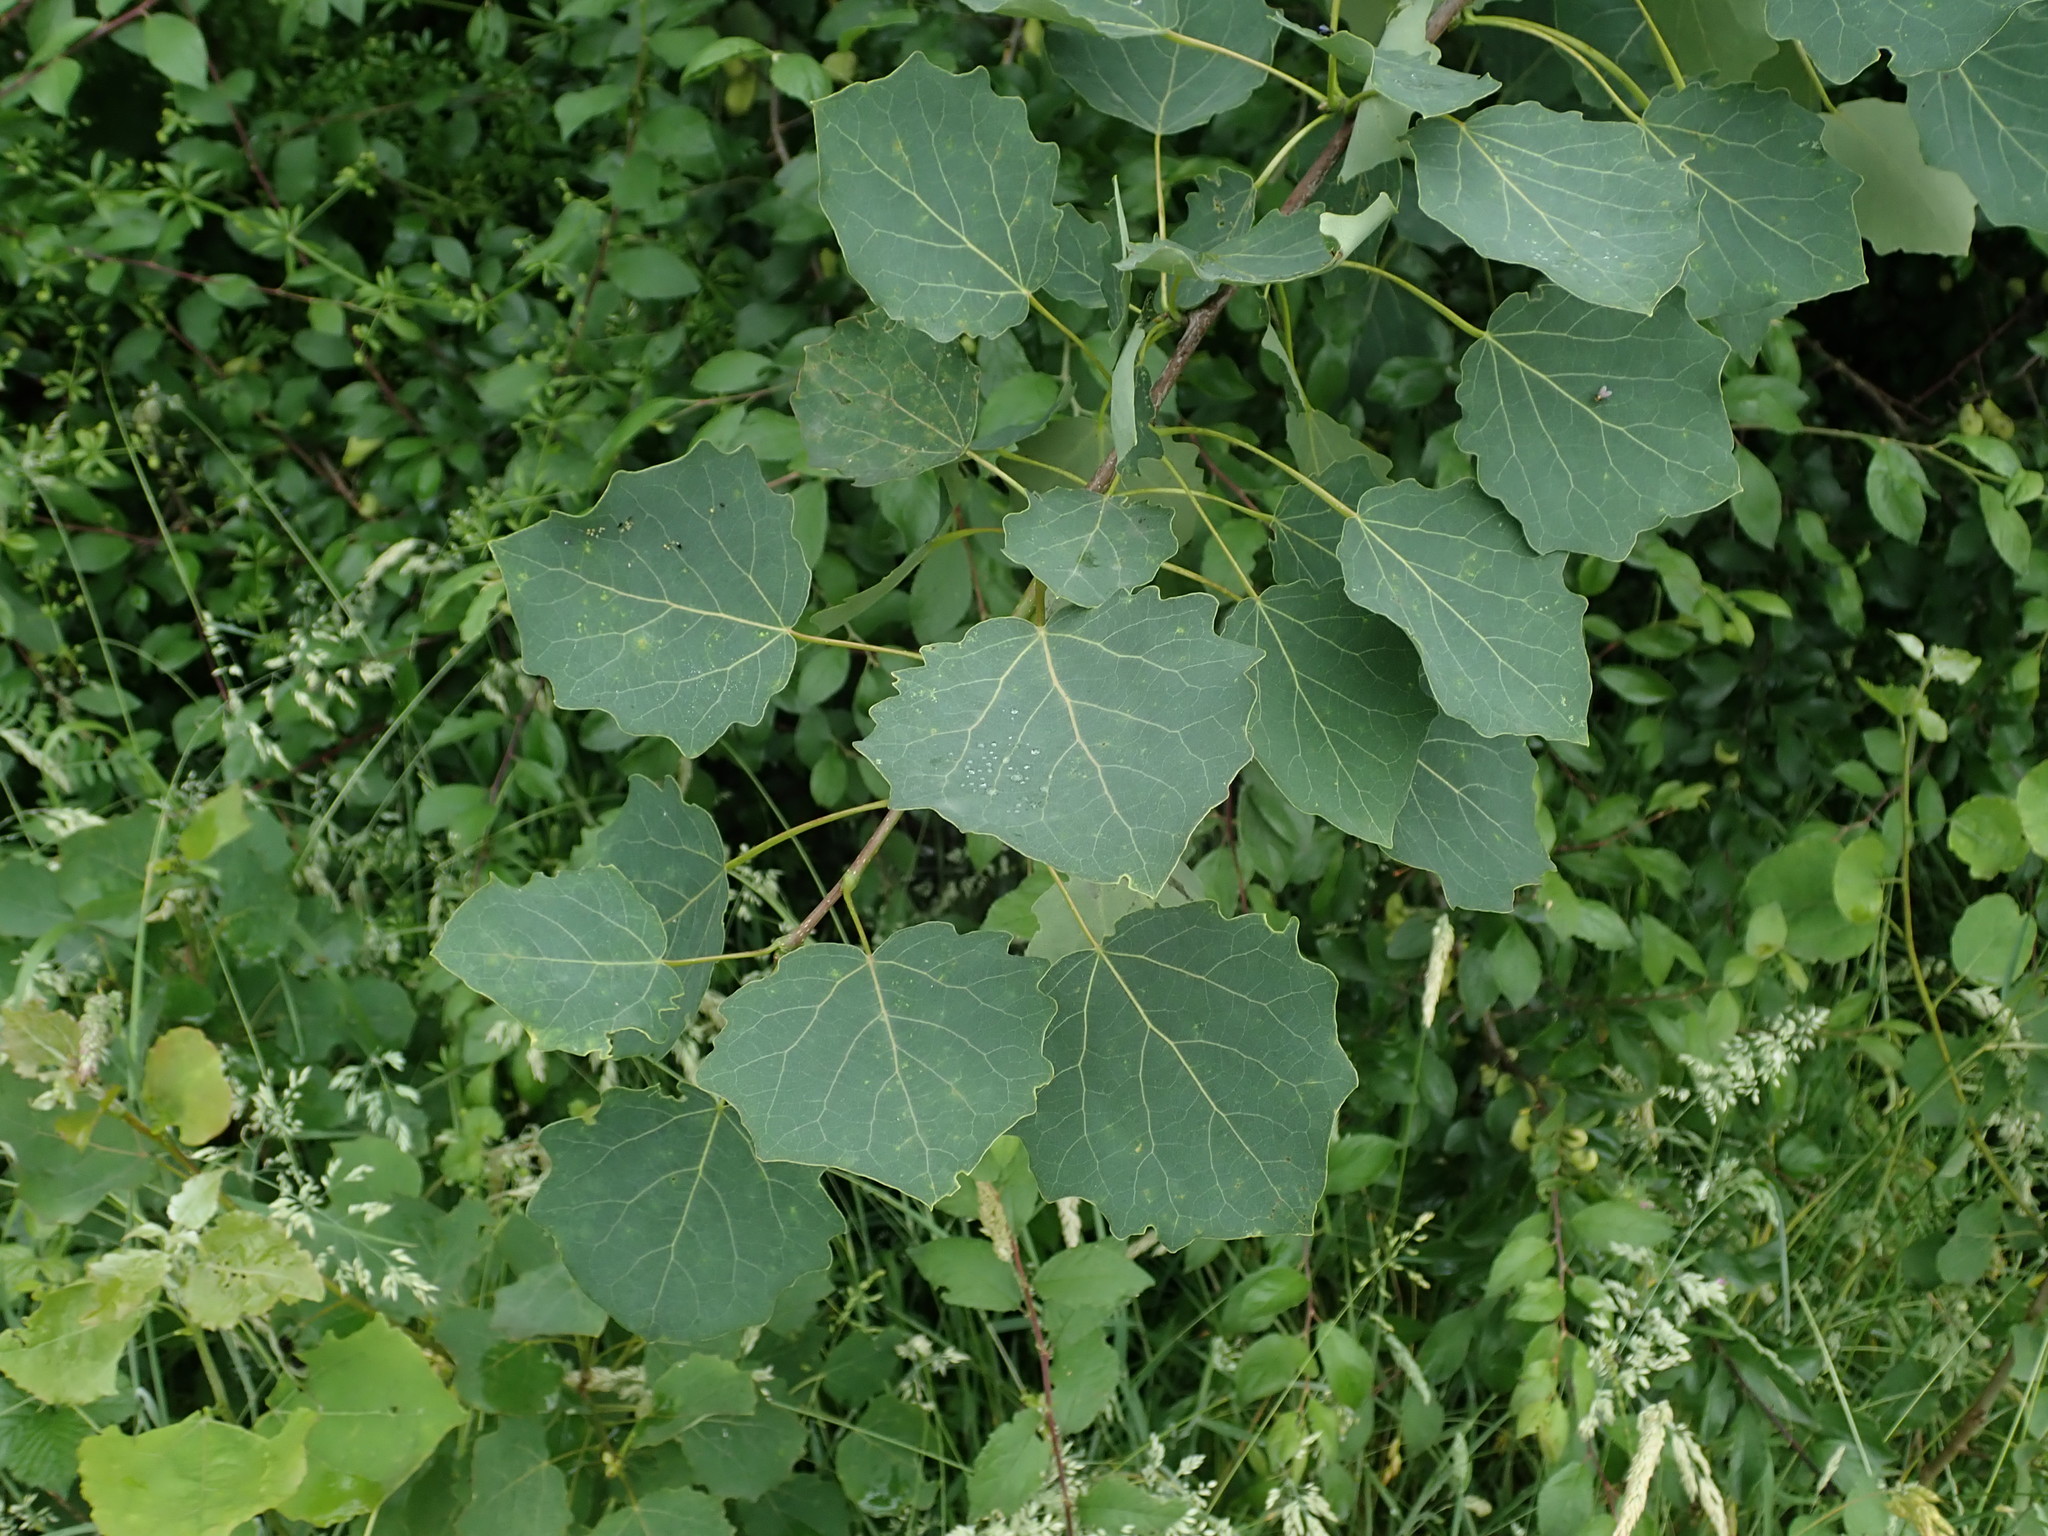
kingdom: Plantae
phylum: Tracheophyta
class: Magnoliopsida
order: Malpighiales
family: Salicaceae
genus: Populus
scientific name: Populus tremula
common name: European aspen
